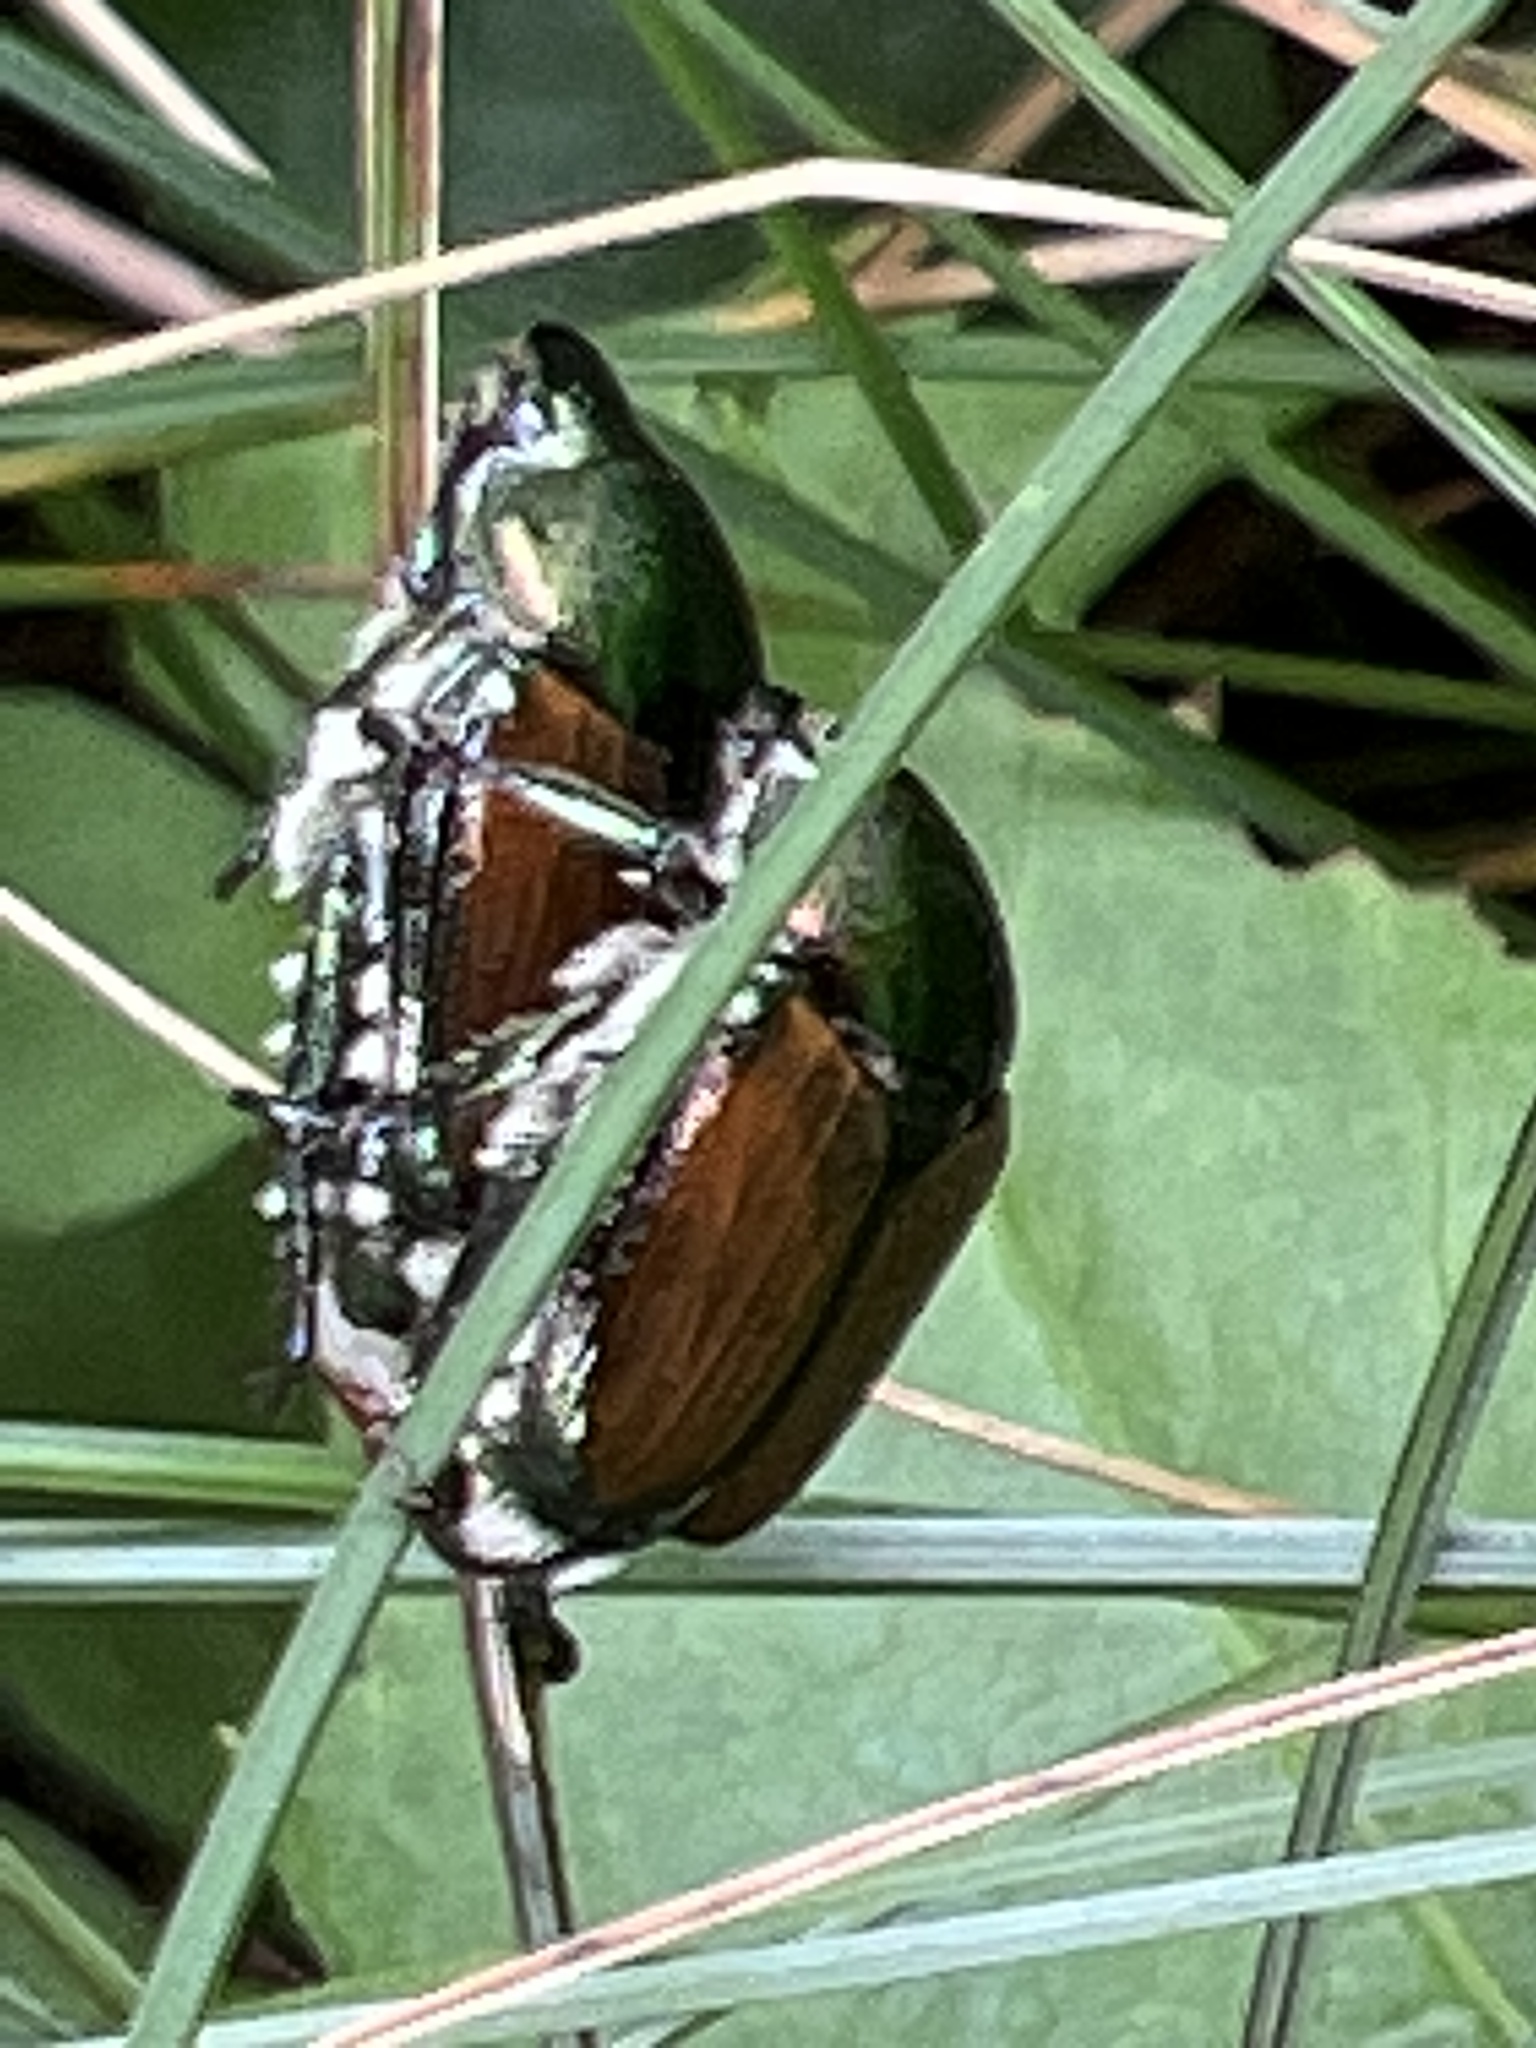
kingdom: Animalia
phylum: Arthropoda
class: Insecta
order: Coleoptera
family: Scarabaeidae
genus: Popillia
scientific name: Popillia japonica
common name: Japanese beetle
